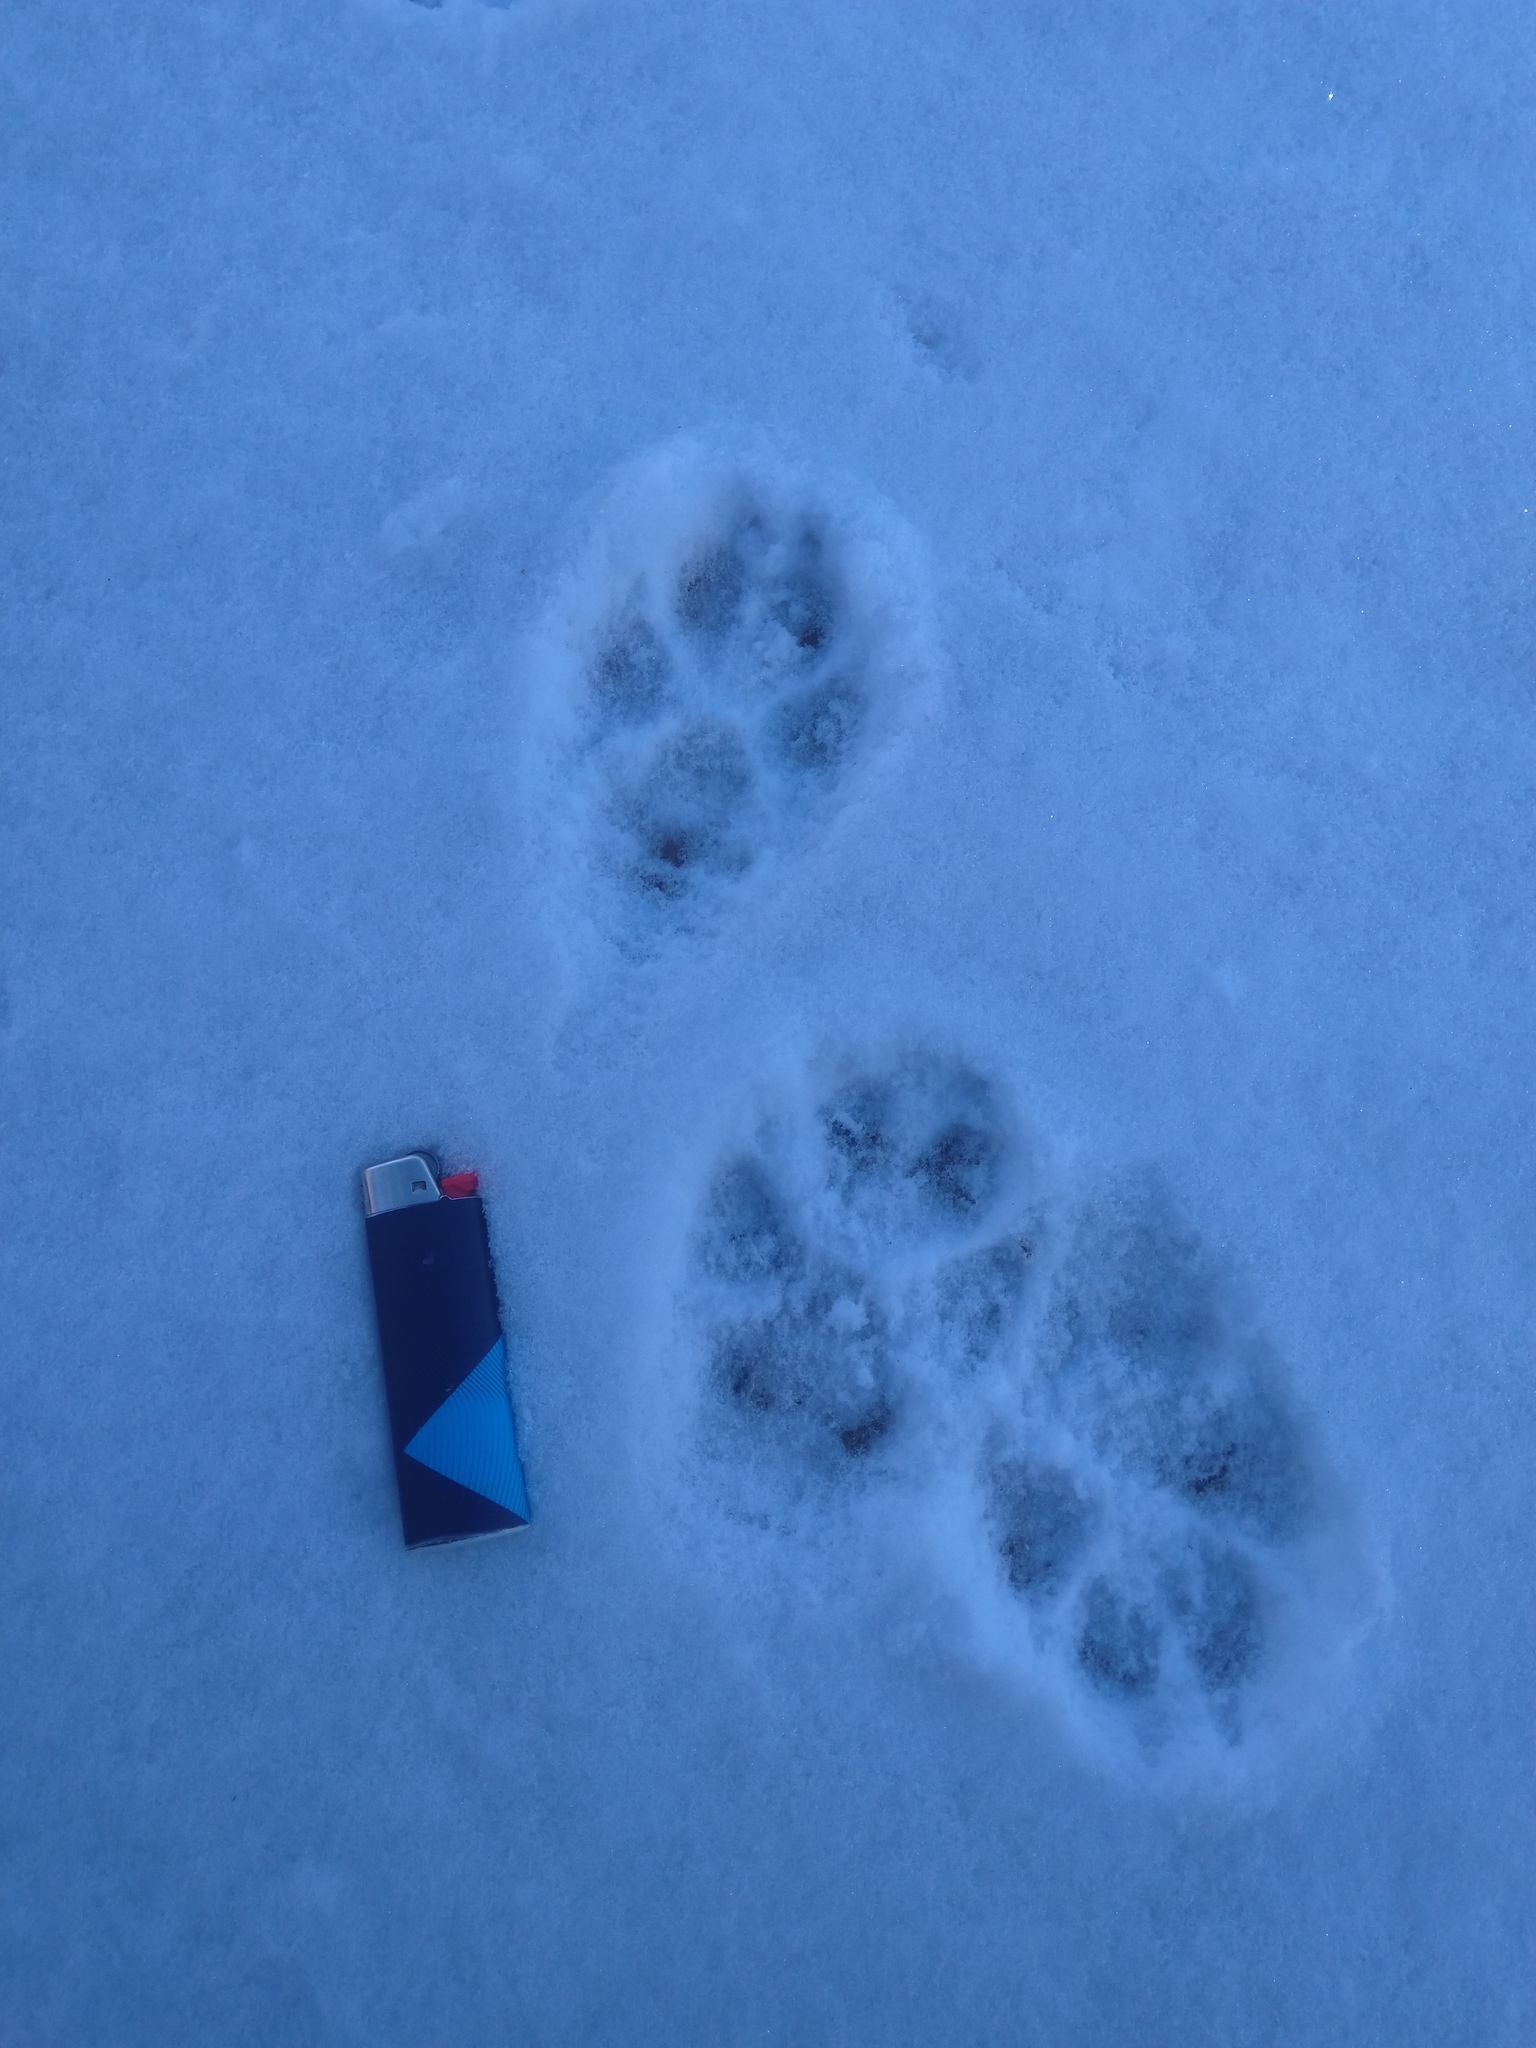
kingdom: Animalia
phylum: Chordata
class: Mammalia
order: Carnivora
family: Canidae
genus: Canis
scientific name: Canis lupus
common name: Gray wolf
